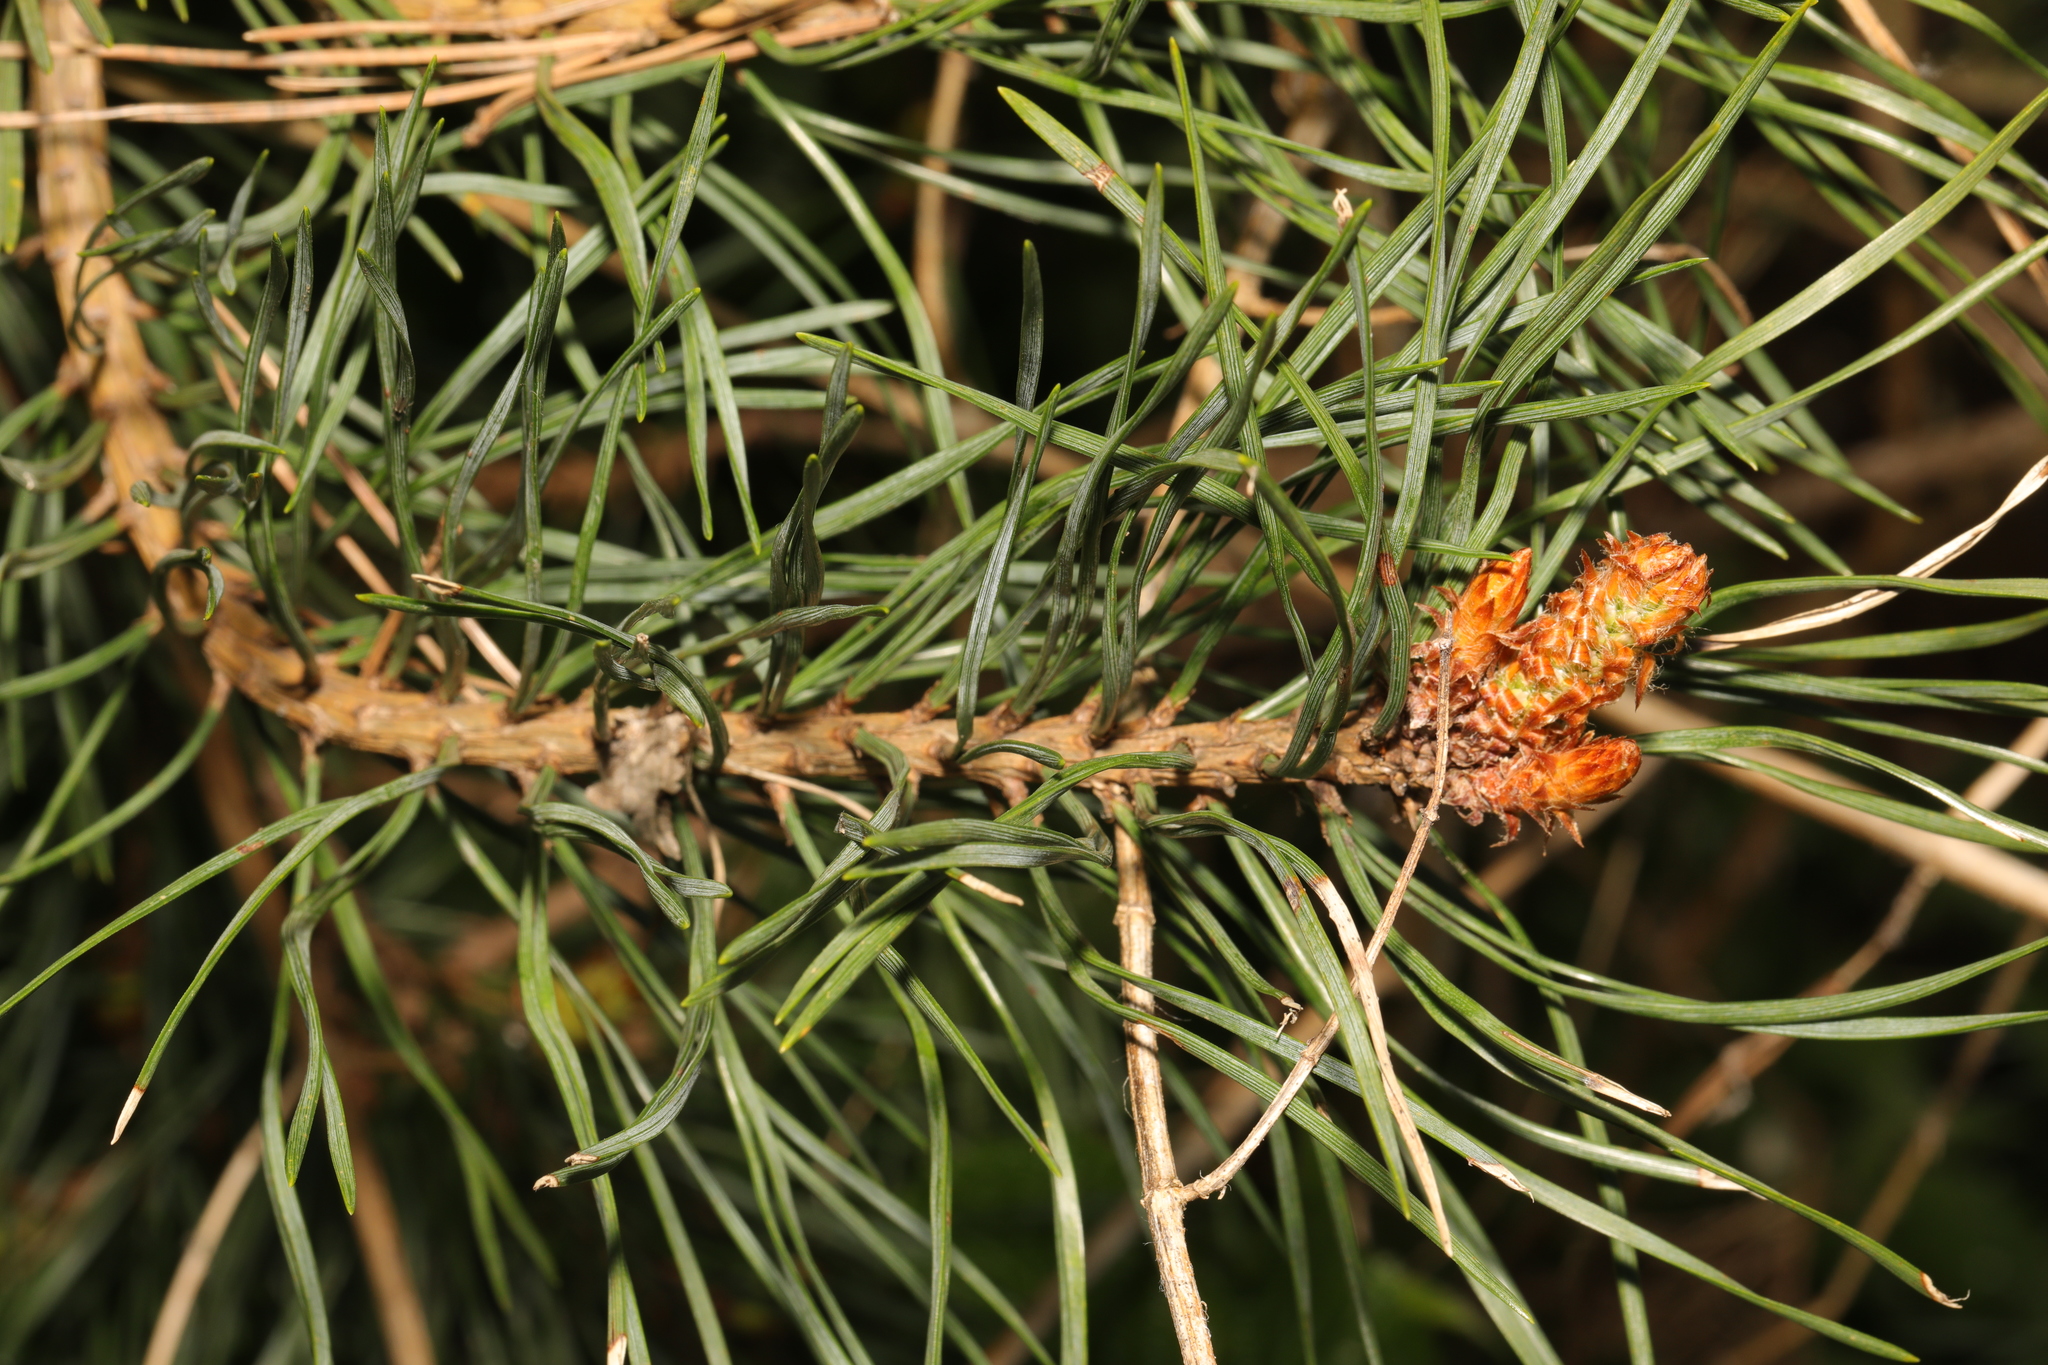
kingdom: Plantae
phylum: Tracheophyta
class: Pinopsida
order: Pinales
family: Pinaceae
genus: Pinus
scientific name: Pinus sylvestris
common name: Scots pine
